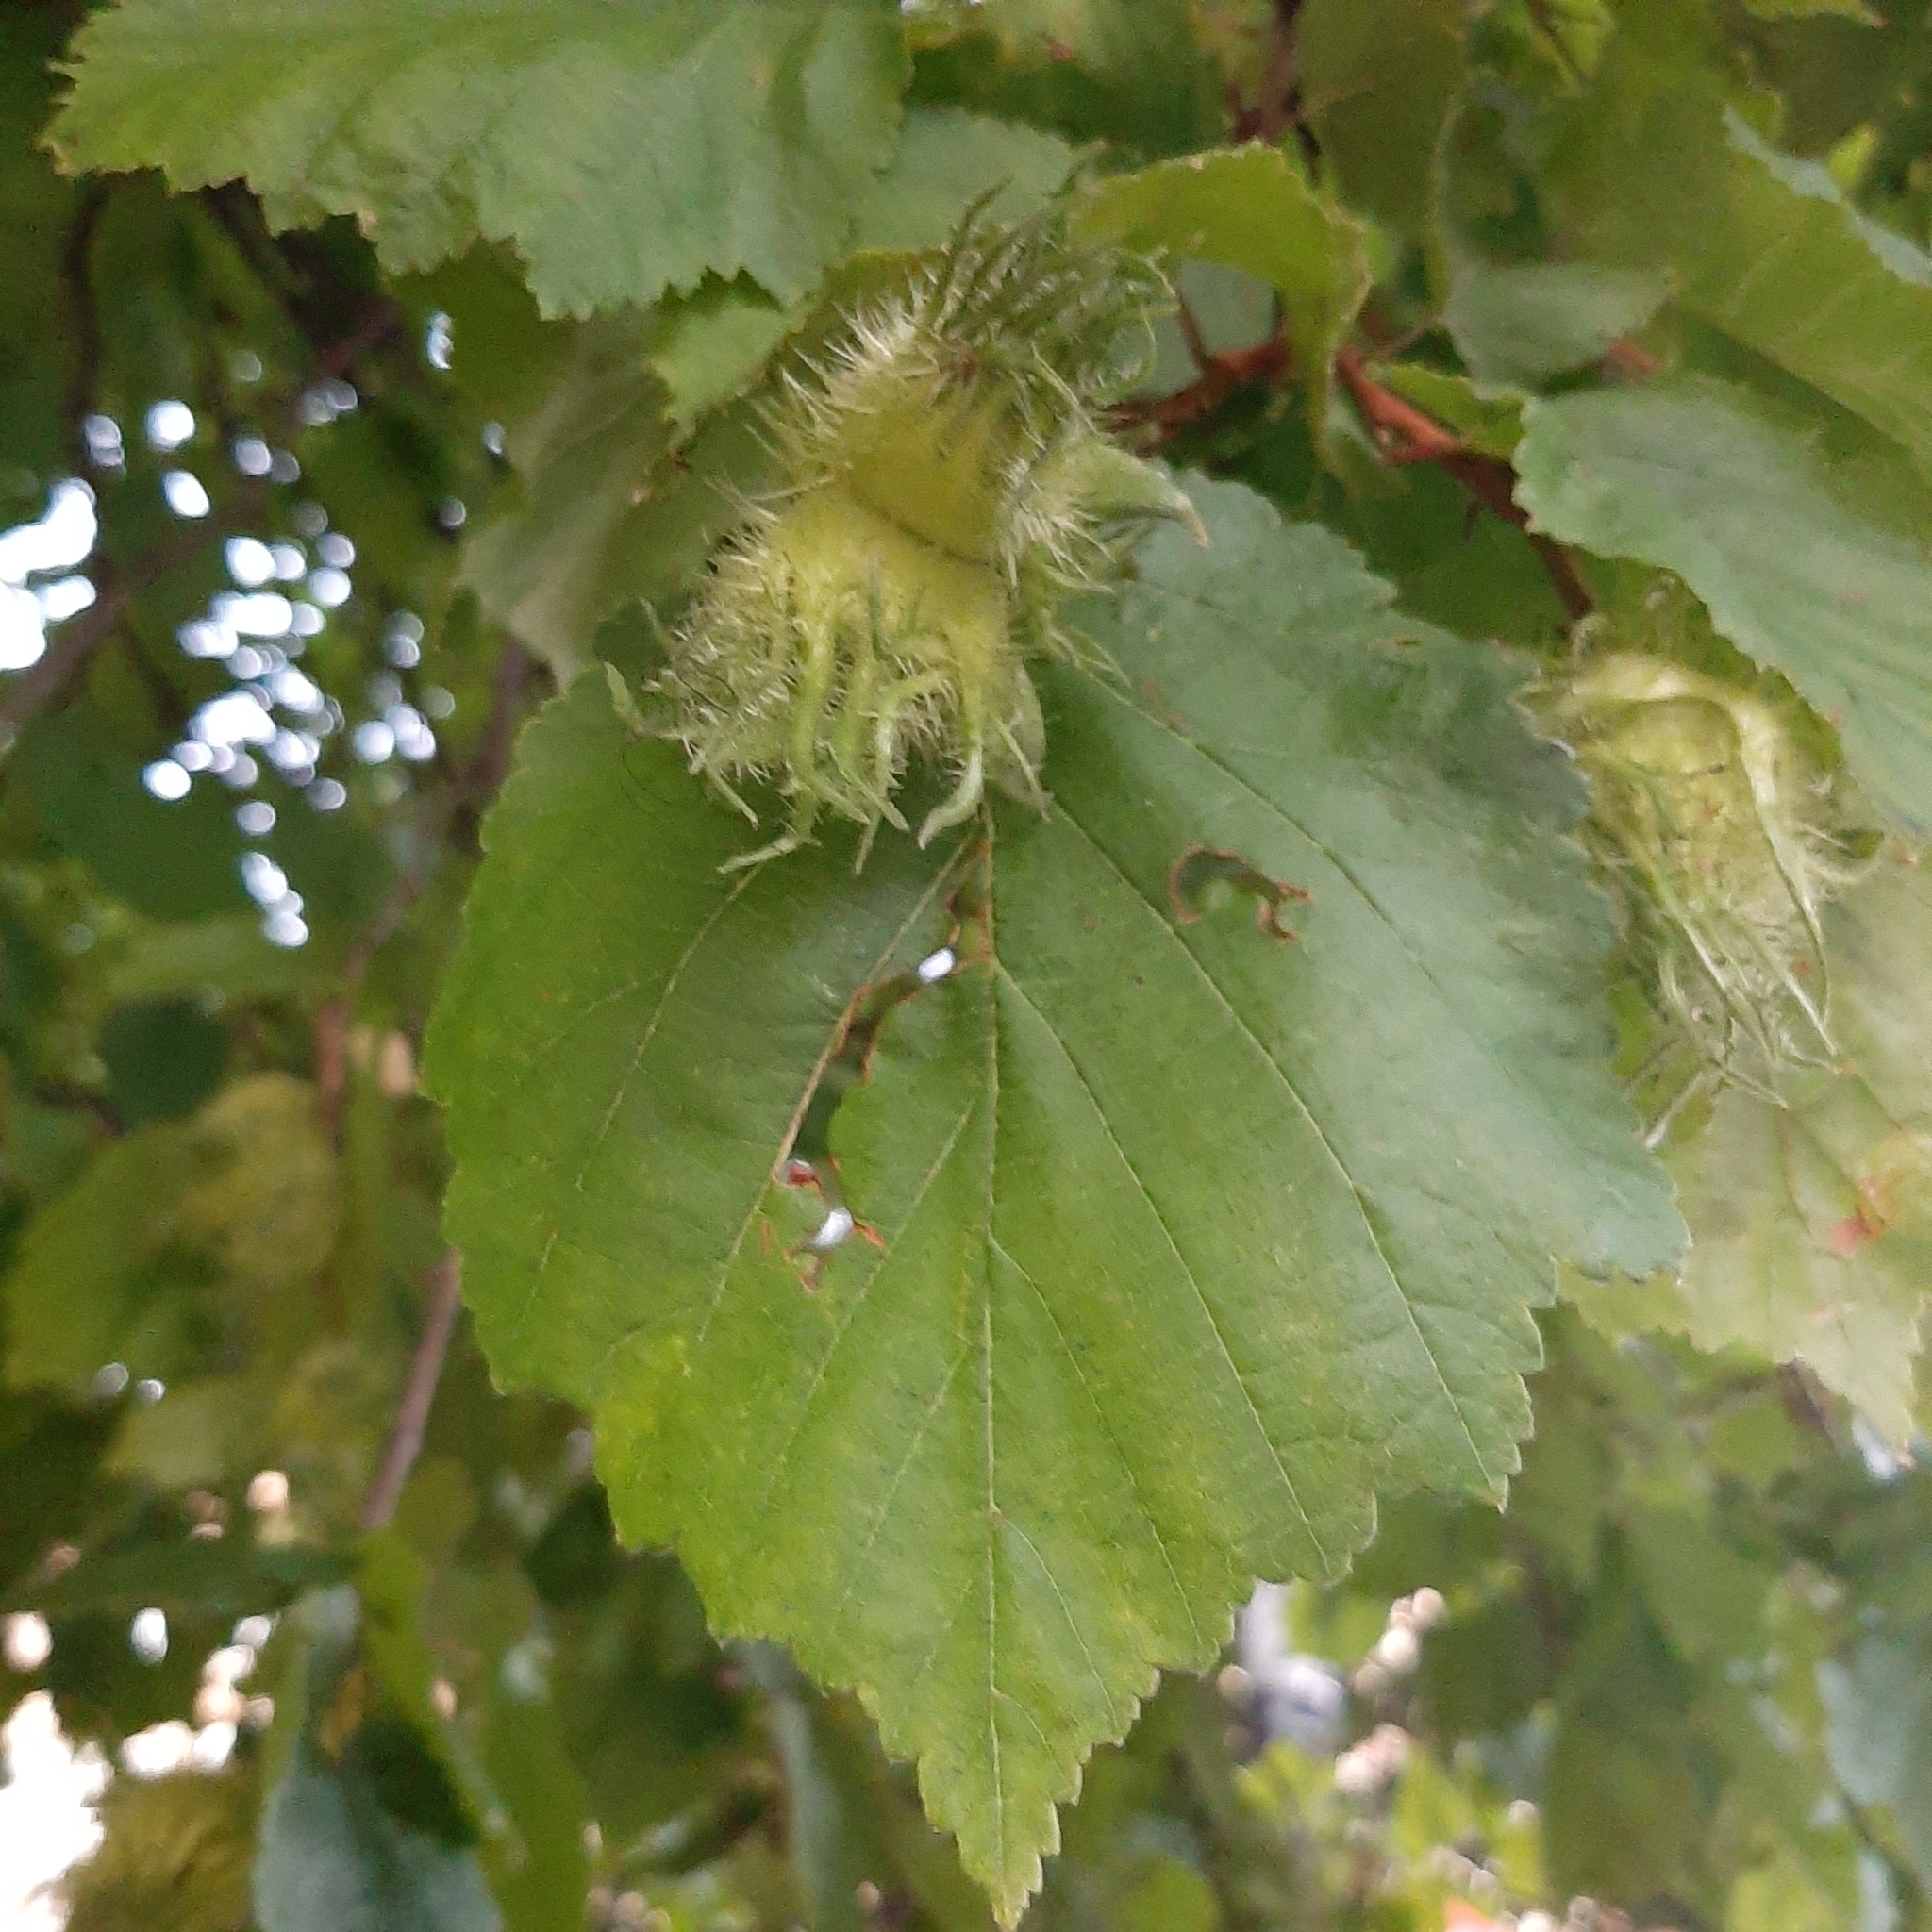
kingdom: Plantae
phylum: Tracheophyta
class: Magnoliopsida
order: Fagales
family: Betulaceae
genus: Corylus
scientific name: Corylus colurna
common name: Turkish hazel
